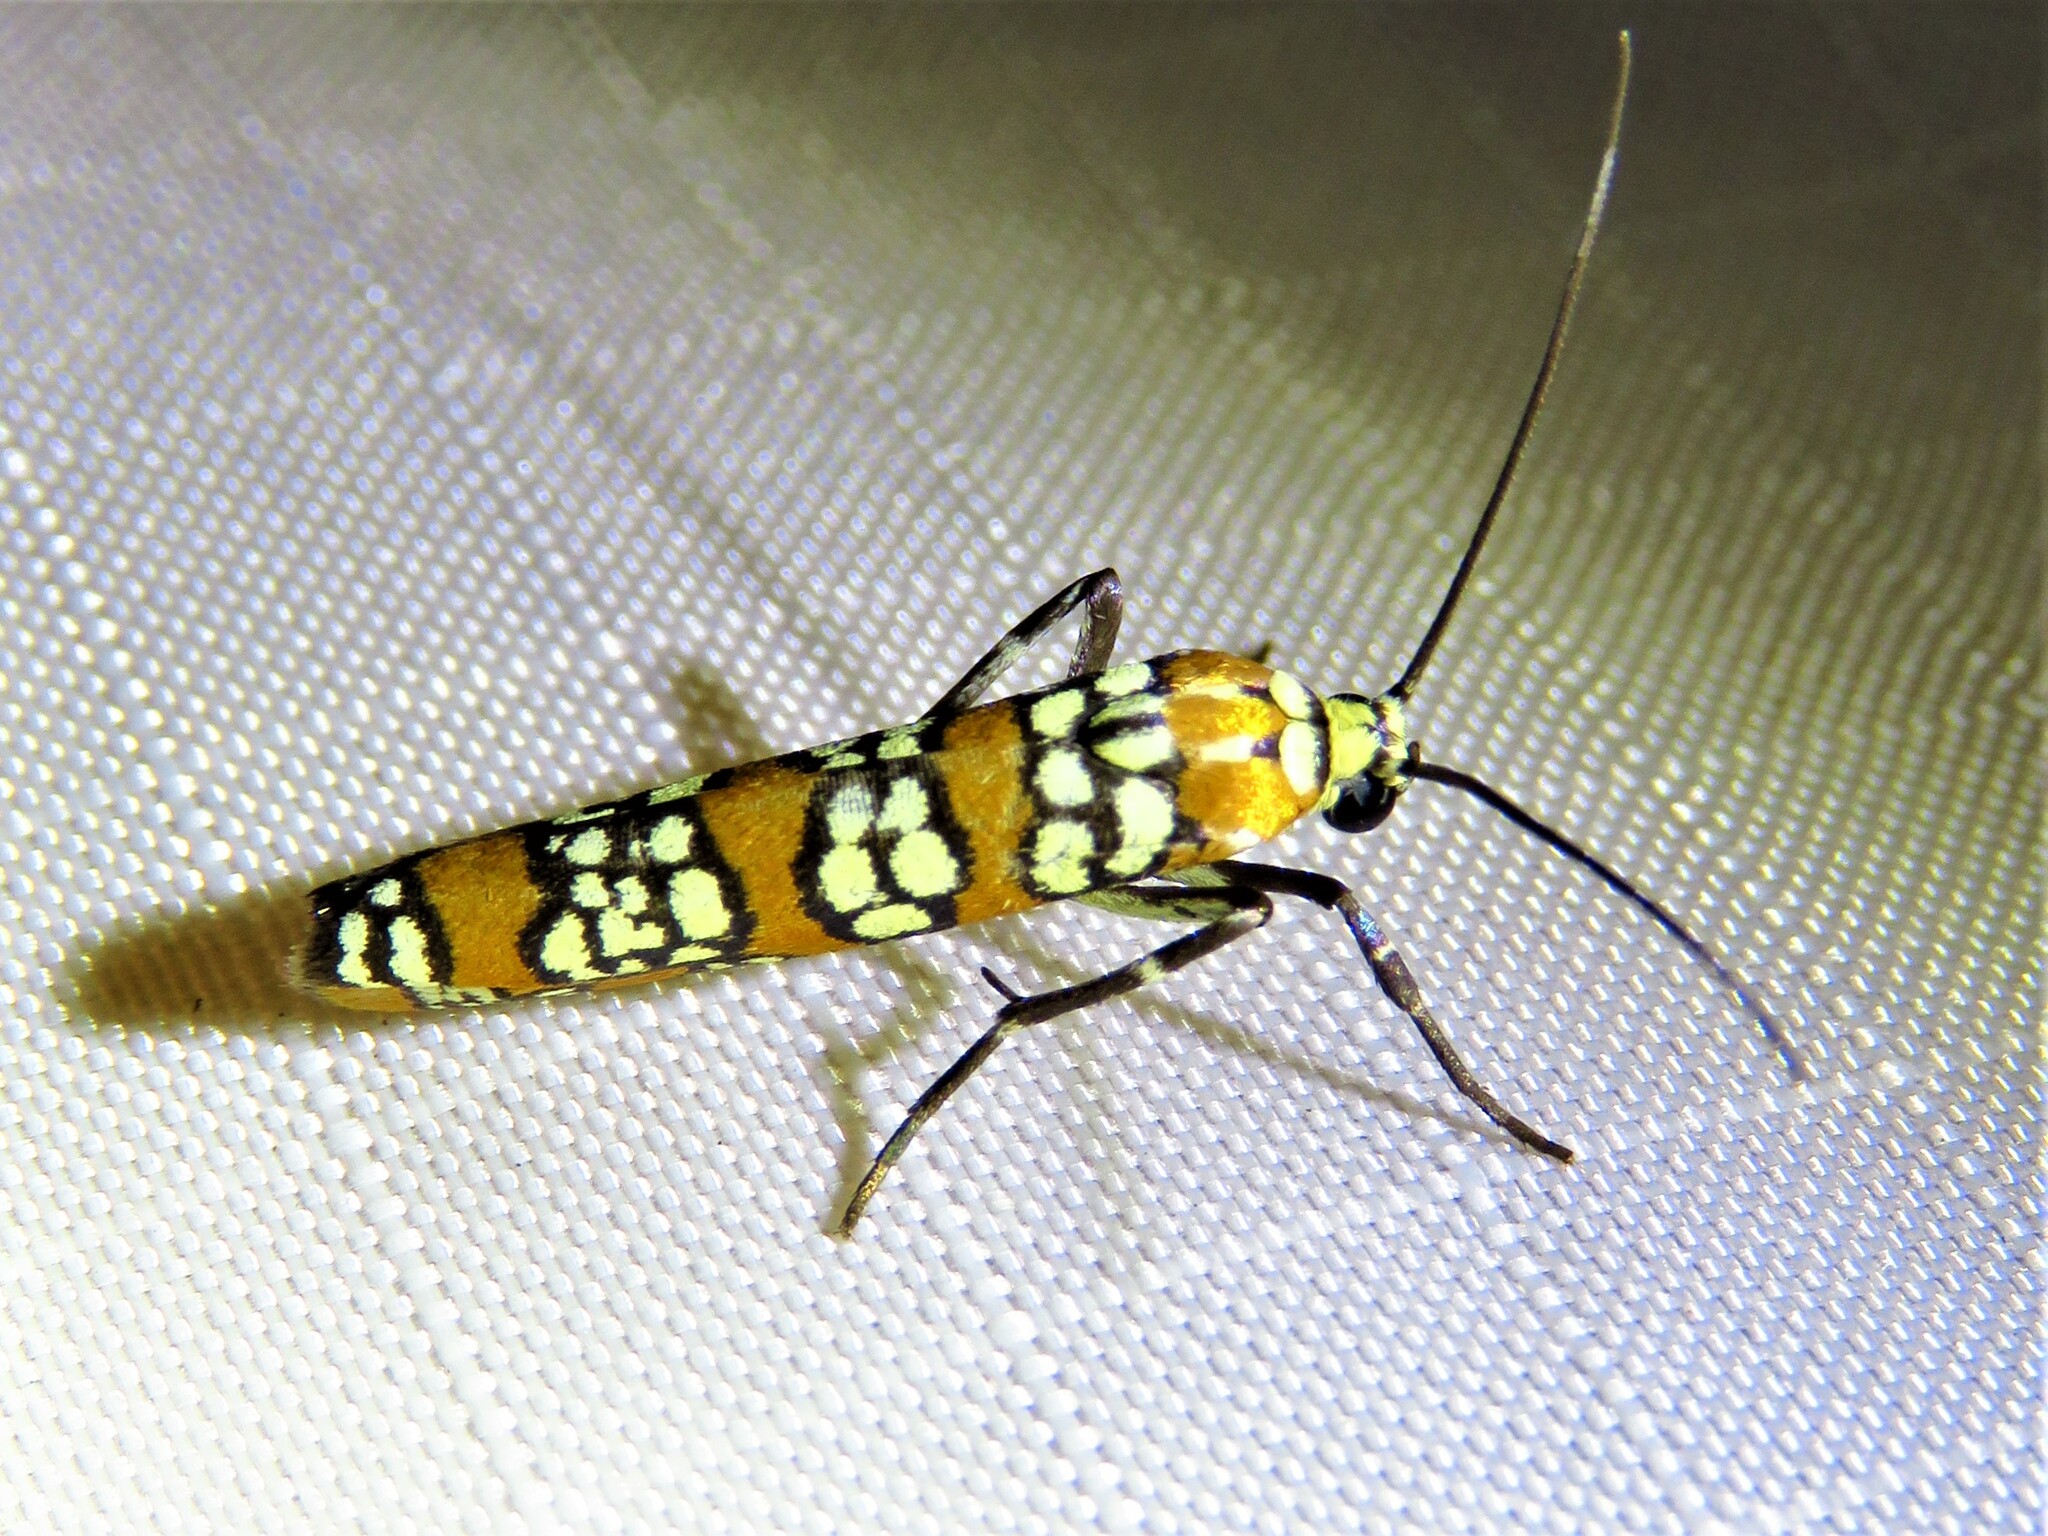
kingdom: Animalia
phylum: Arthropoda
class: Insecta
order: Lepidoptera
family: Attevidae
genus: Atteva
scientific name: Atteva punctella
